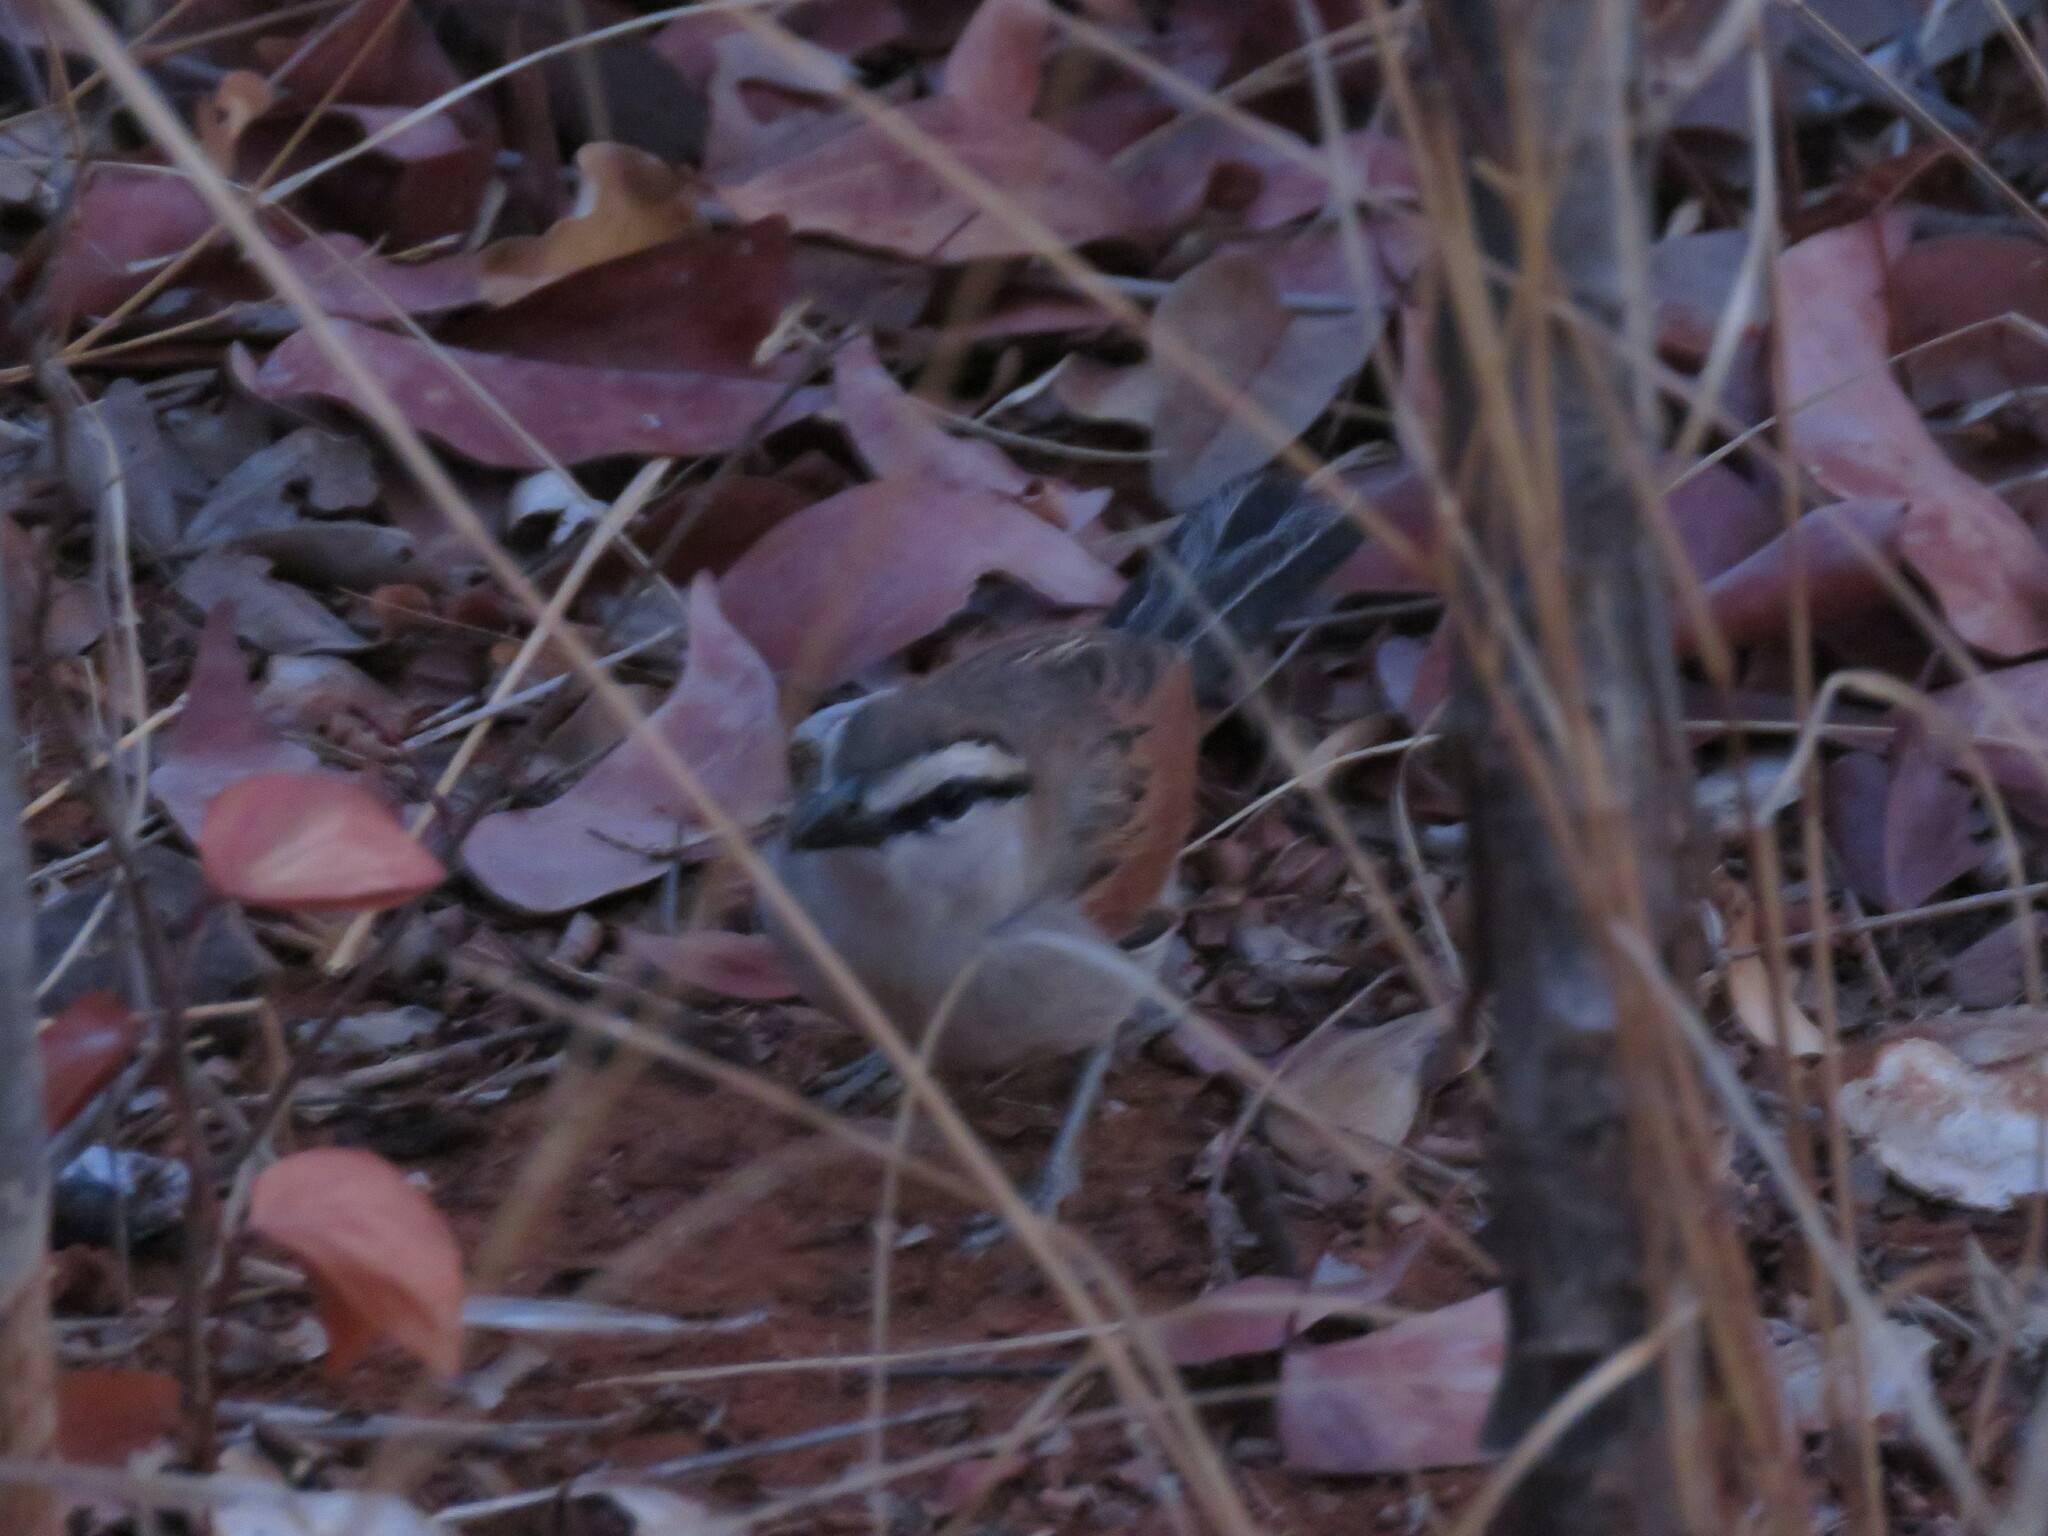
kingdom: Animalia
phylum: Chordata
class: Aves
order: Passeriformes
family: Malaconotidae
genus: Tchagra
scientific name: Tchagra australis
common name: Brown-crowned tchagra
